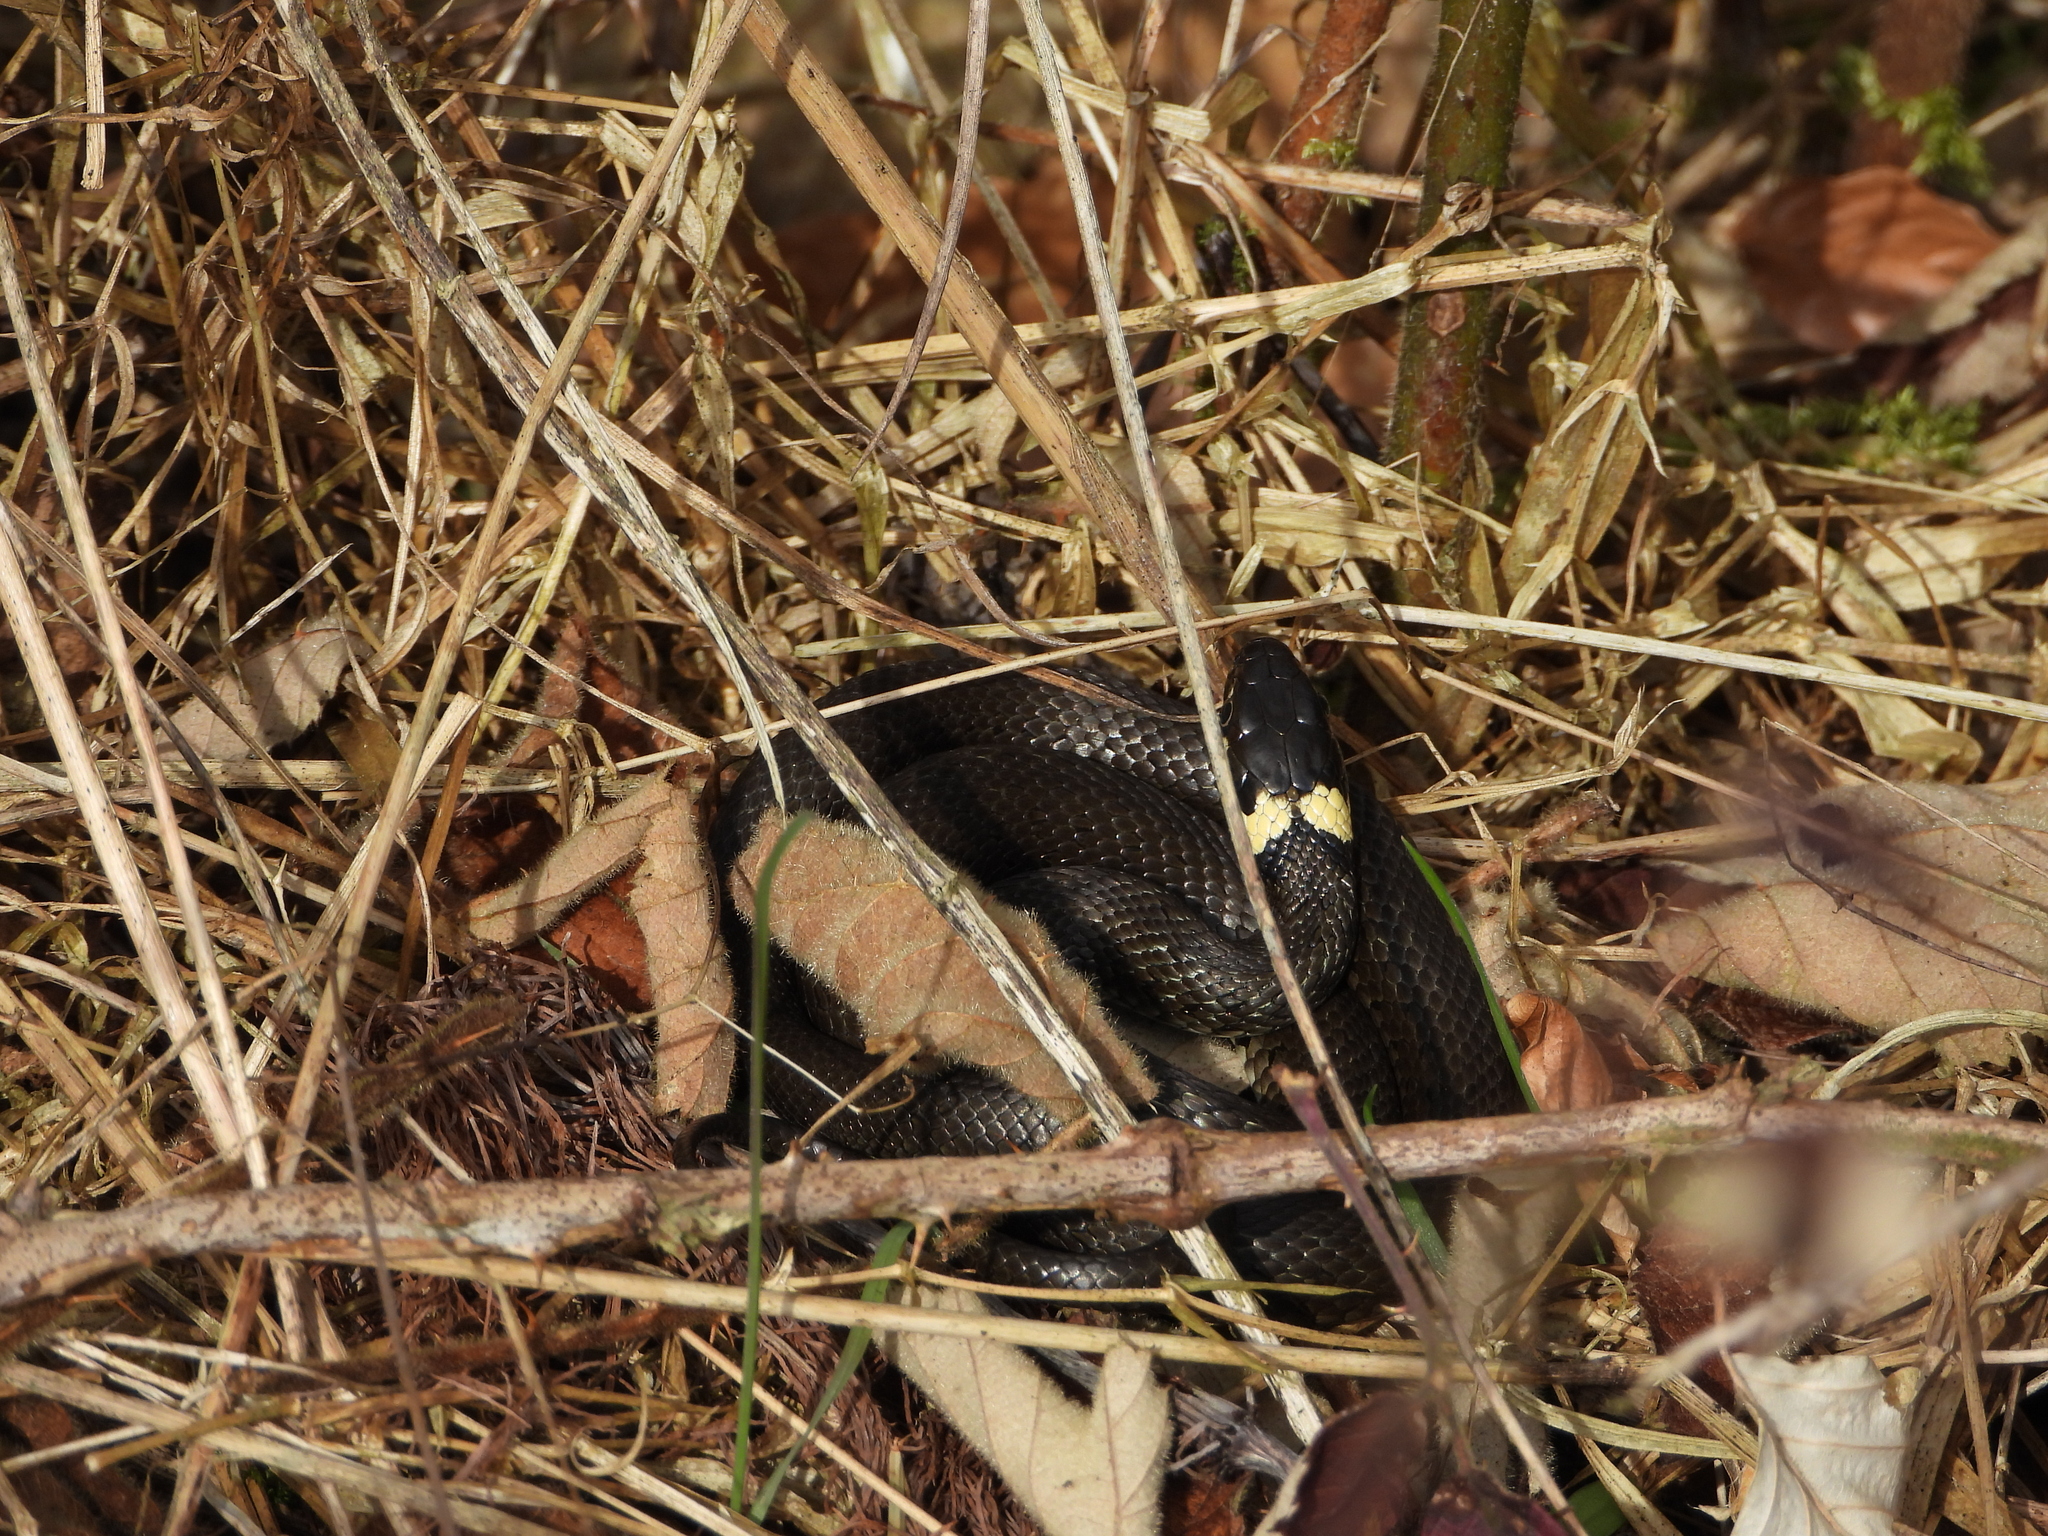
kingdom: Animalia
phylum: Chordata
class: Squamata
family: Colubridae
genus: Natrix
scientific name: Natrix natrix
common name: Grass snake
